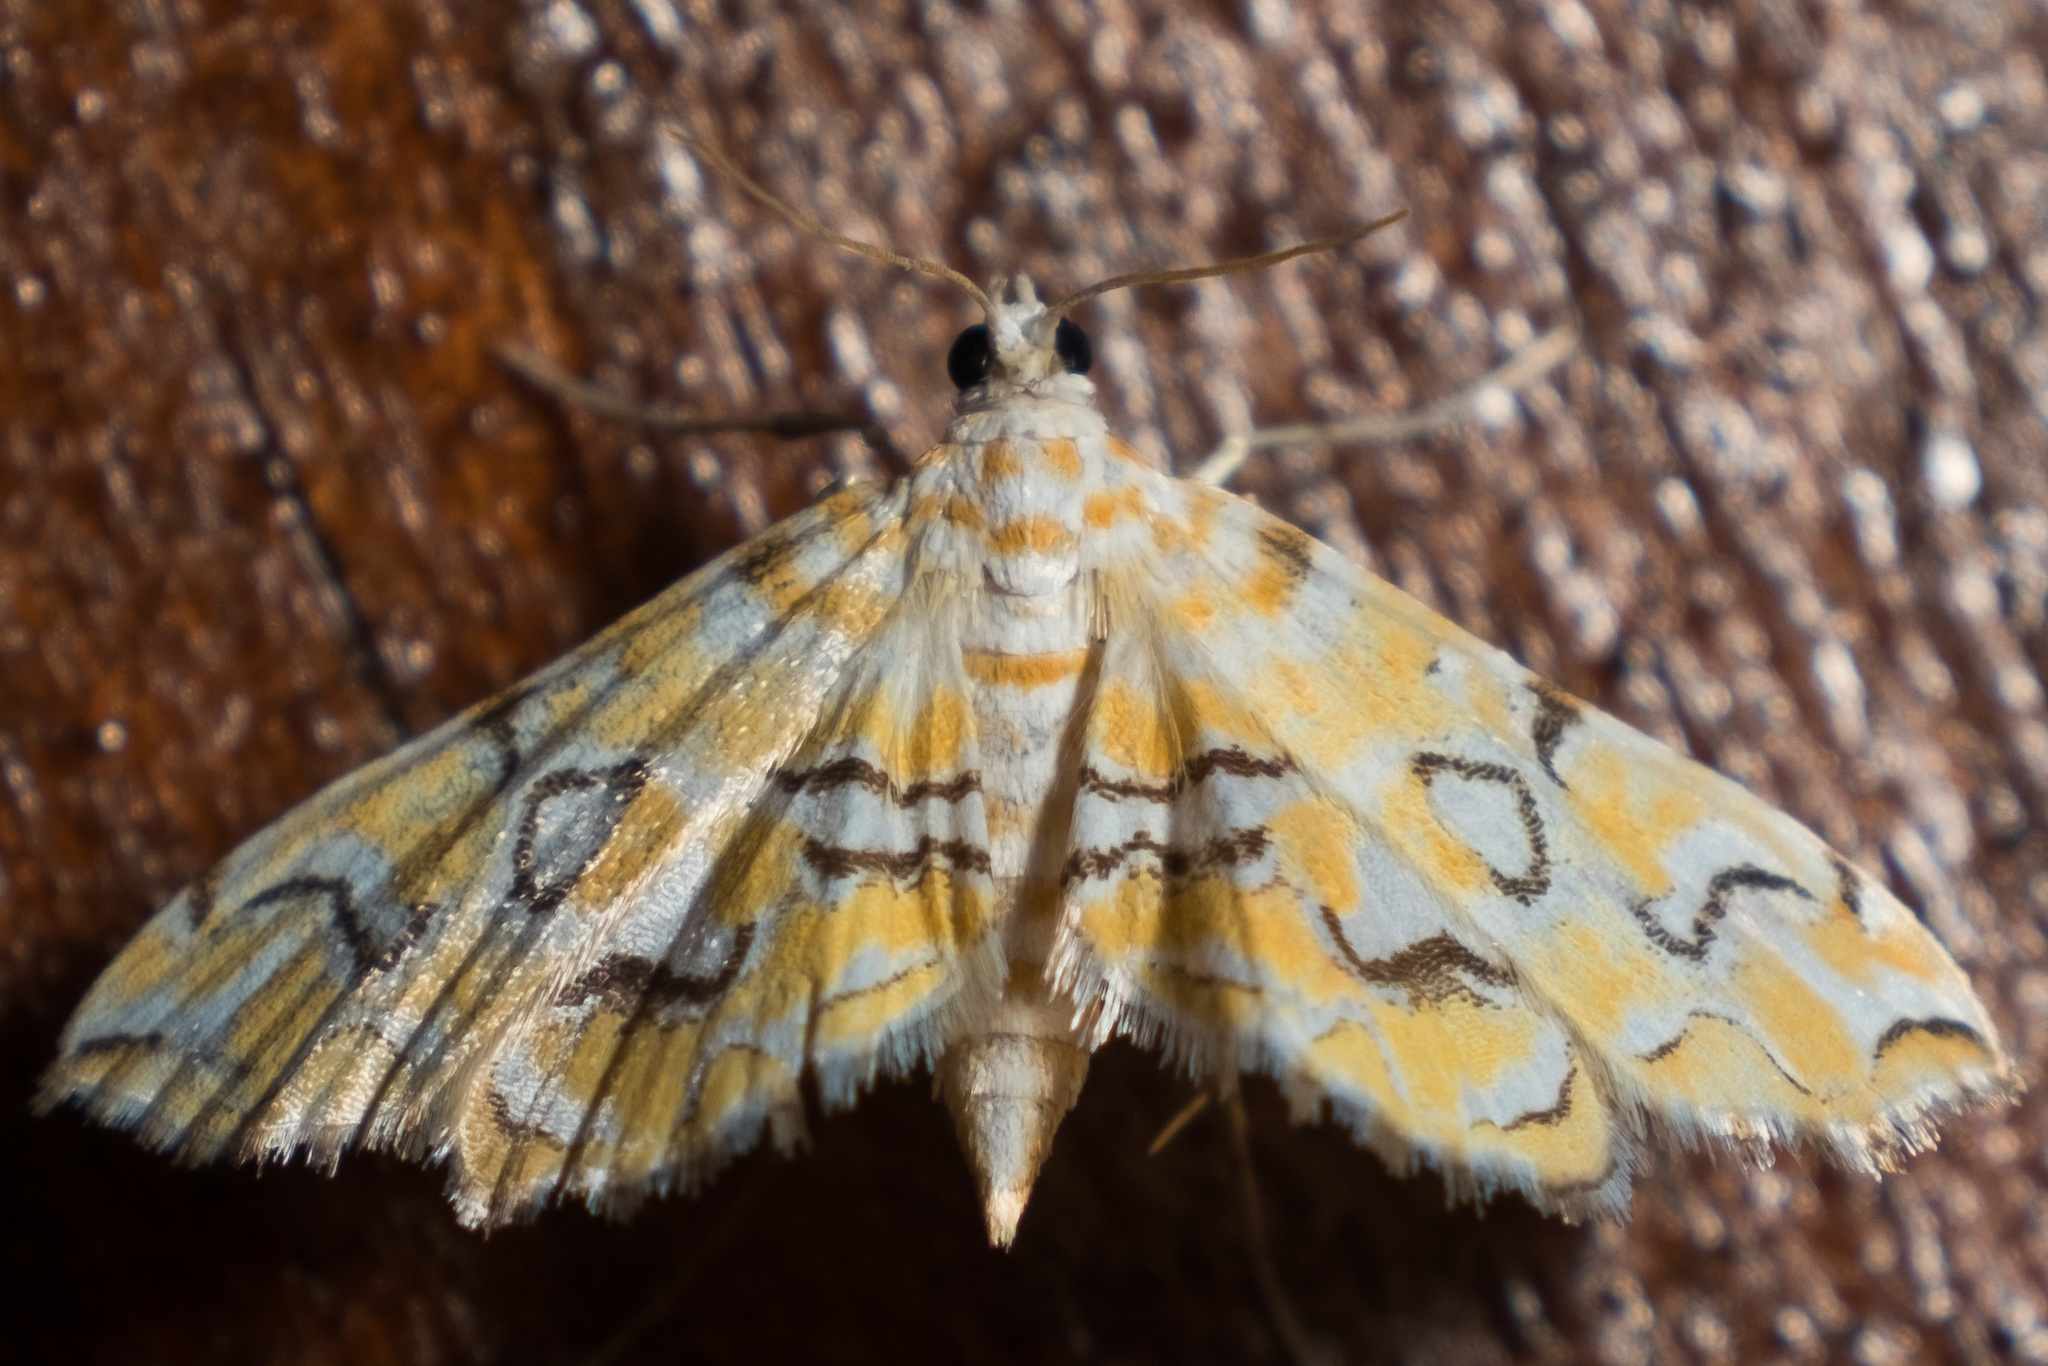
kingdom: Animalia
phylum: Arthropoda
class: Insecta
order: Lepidoptera
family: Crambidae
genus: Elophila
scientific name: Elophila icciusalis
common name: Pondside pyralid moth
